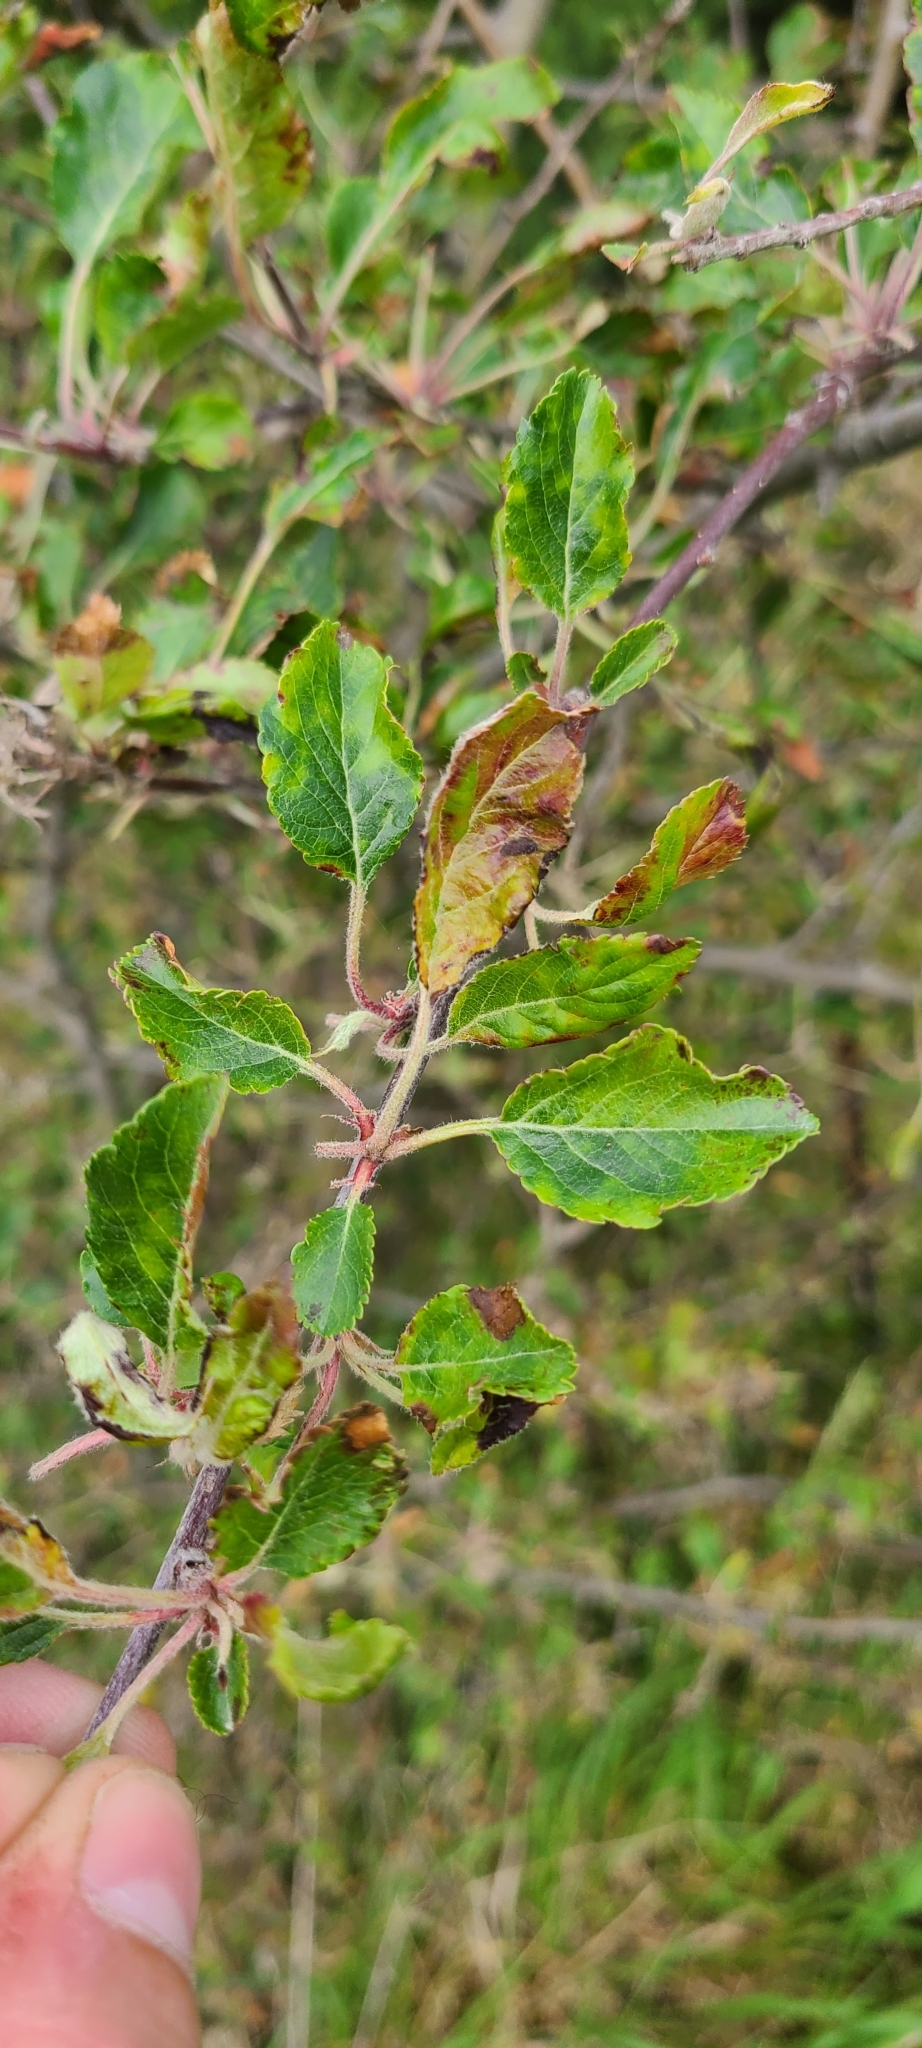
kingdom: Plantae
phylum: Tracheophyta
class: Magnoliopsida
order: Rosales
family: Rosaceae
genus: Malus
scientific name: Malus domestica
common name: Apple
